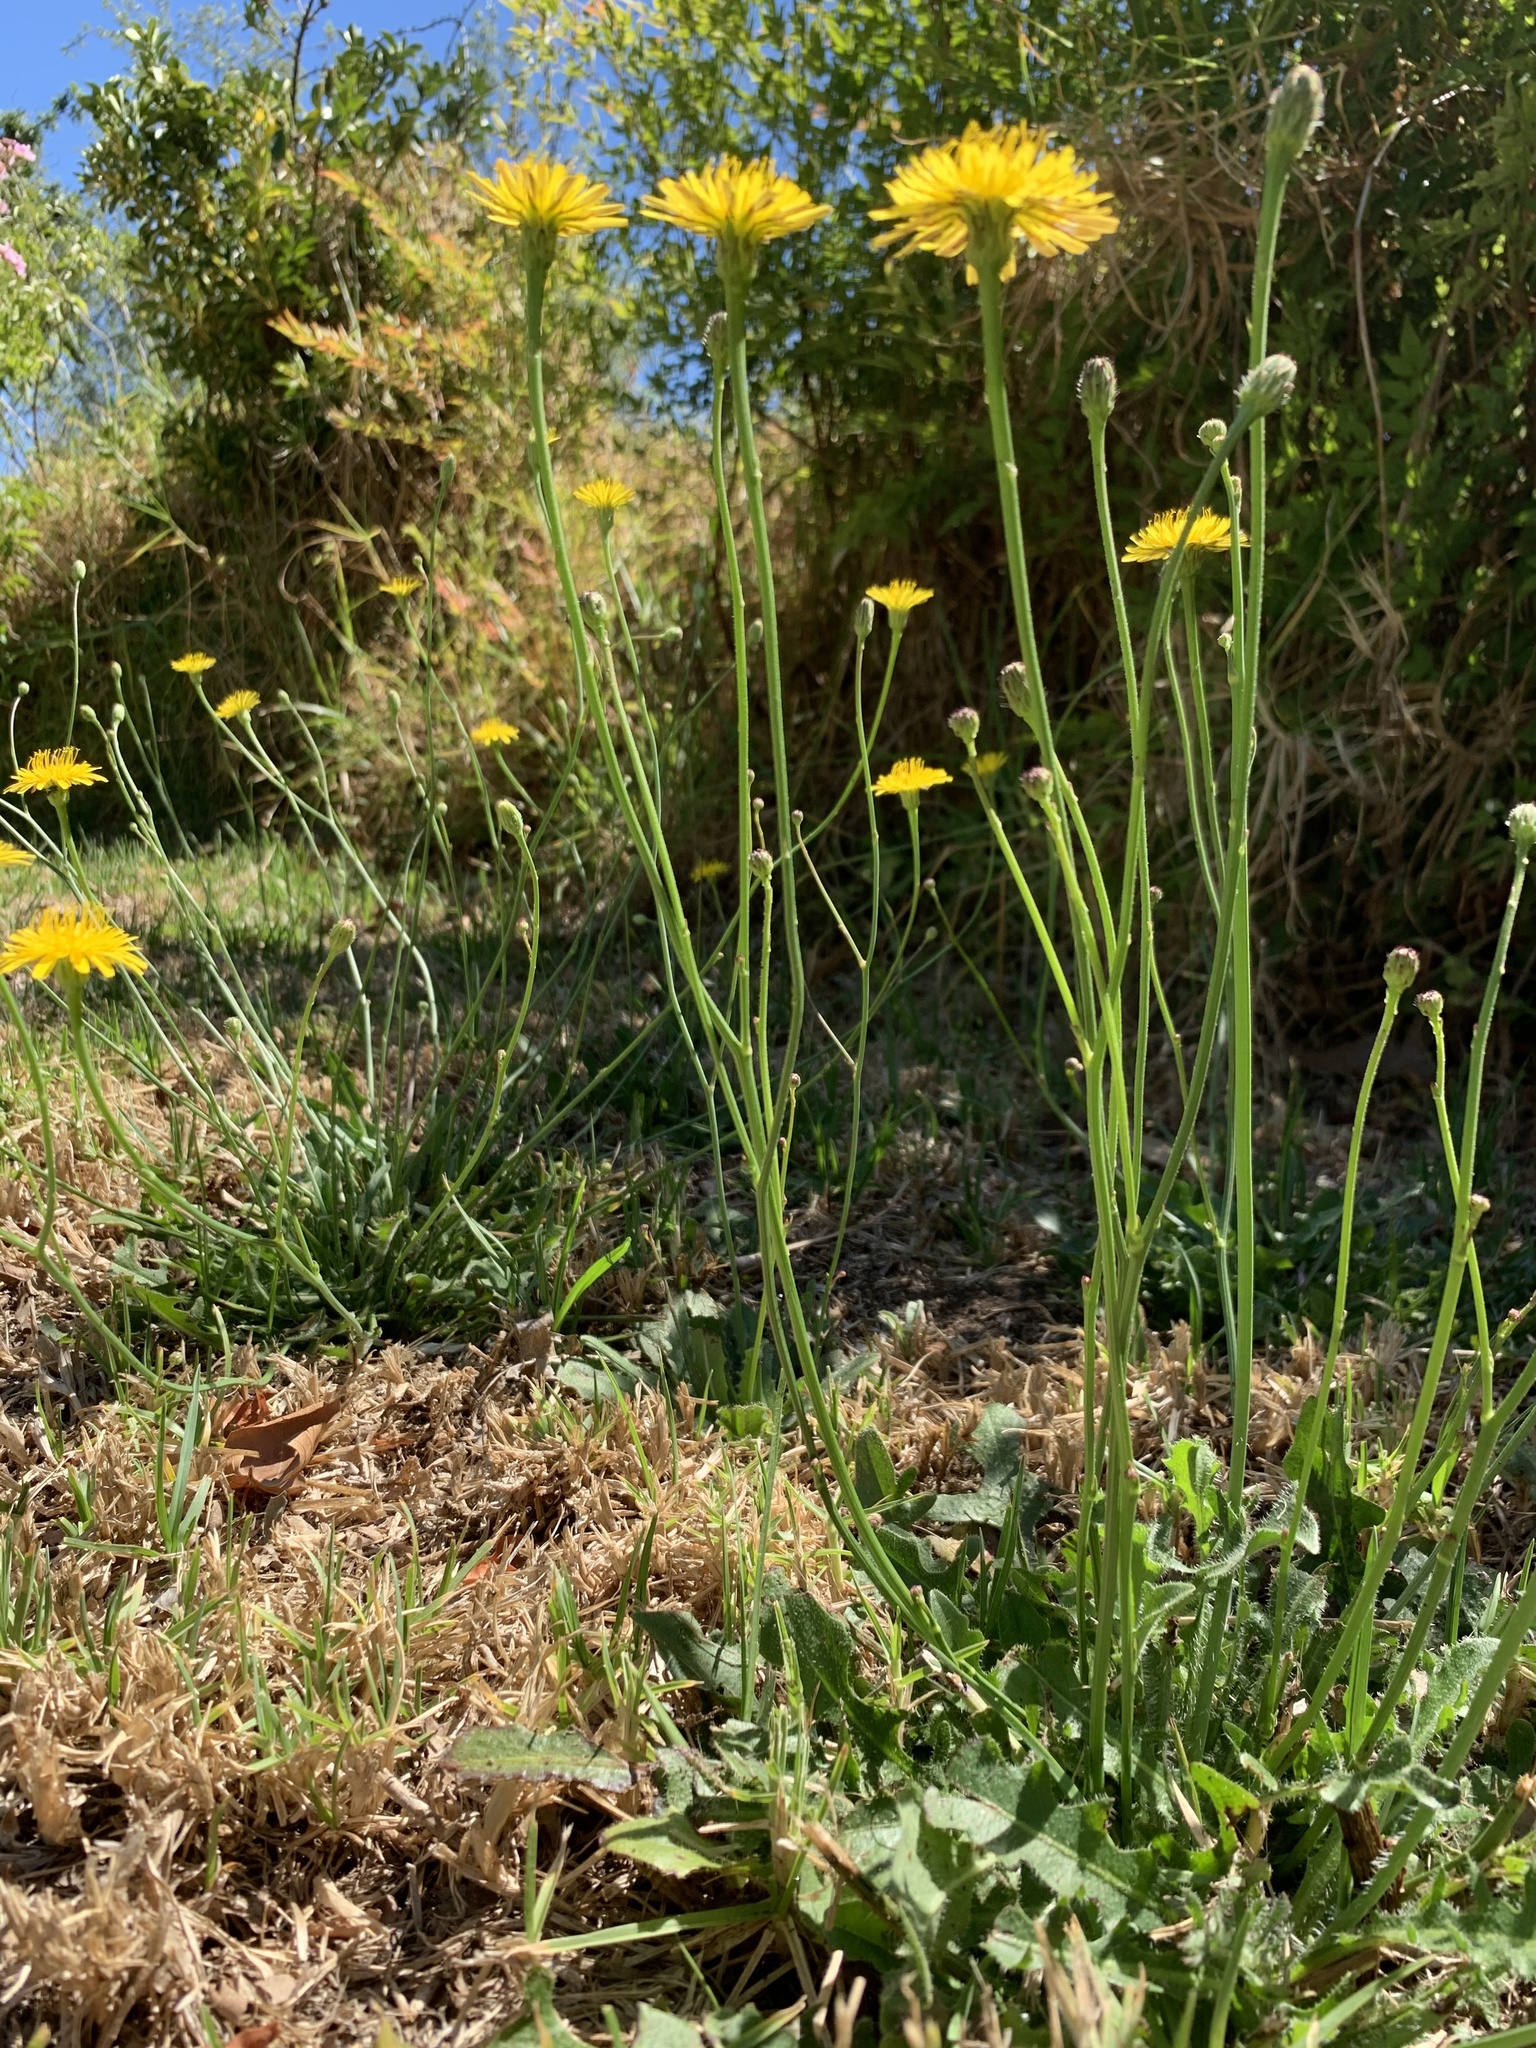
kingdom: Plantae
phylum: Tracheophyta
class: Magnoliopsida
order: Asterales
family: Asteraceae
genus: Hypochaeris
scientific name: Hypochaeris radicata
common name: Flatweed
